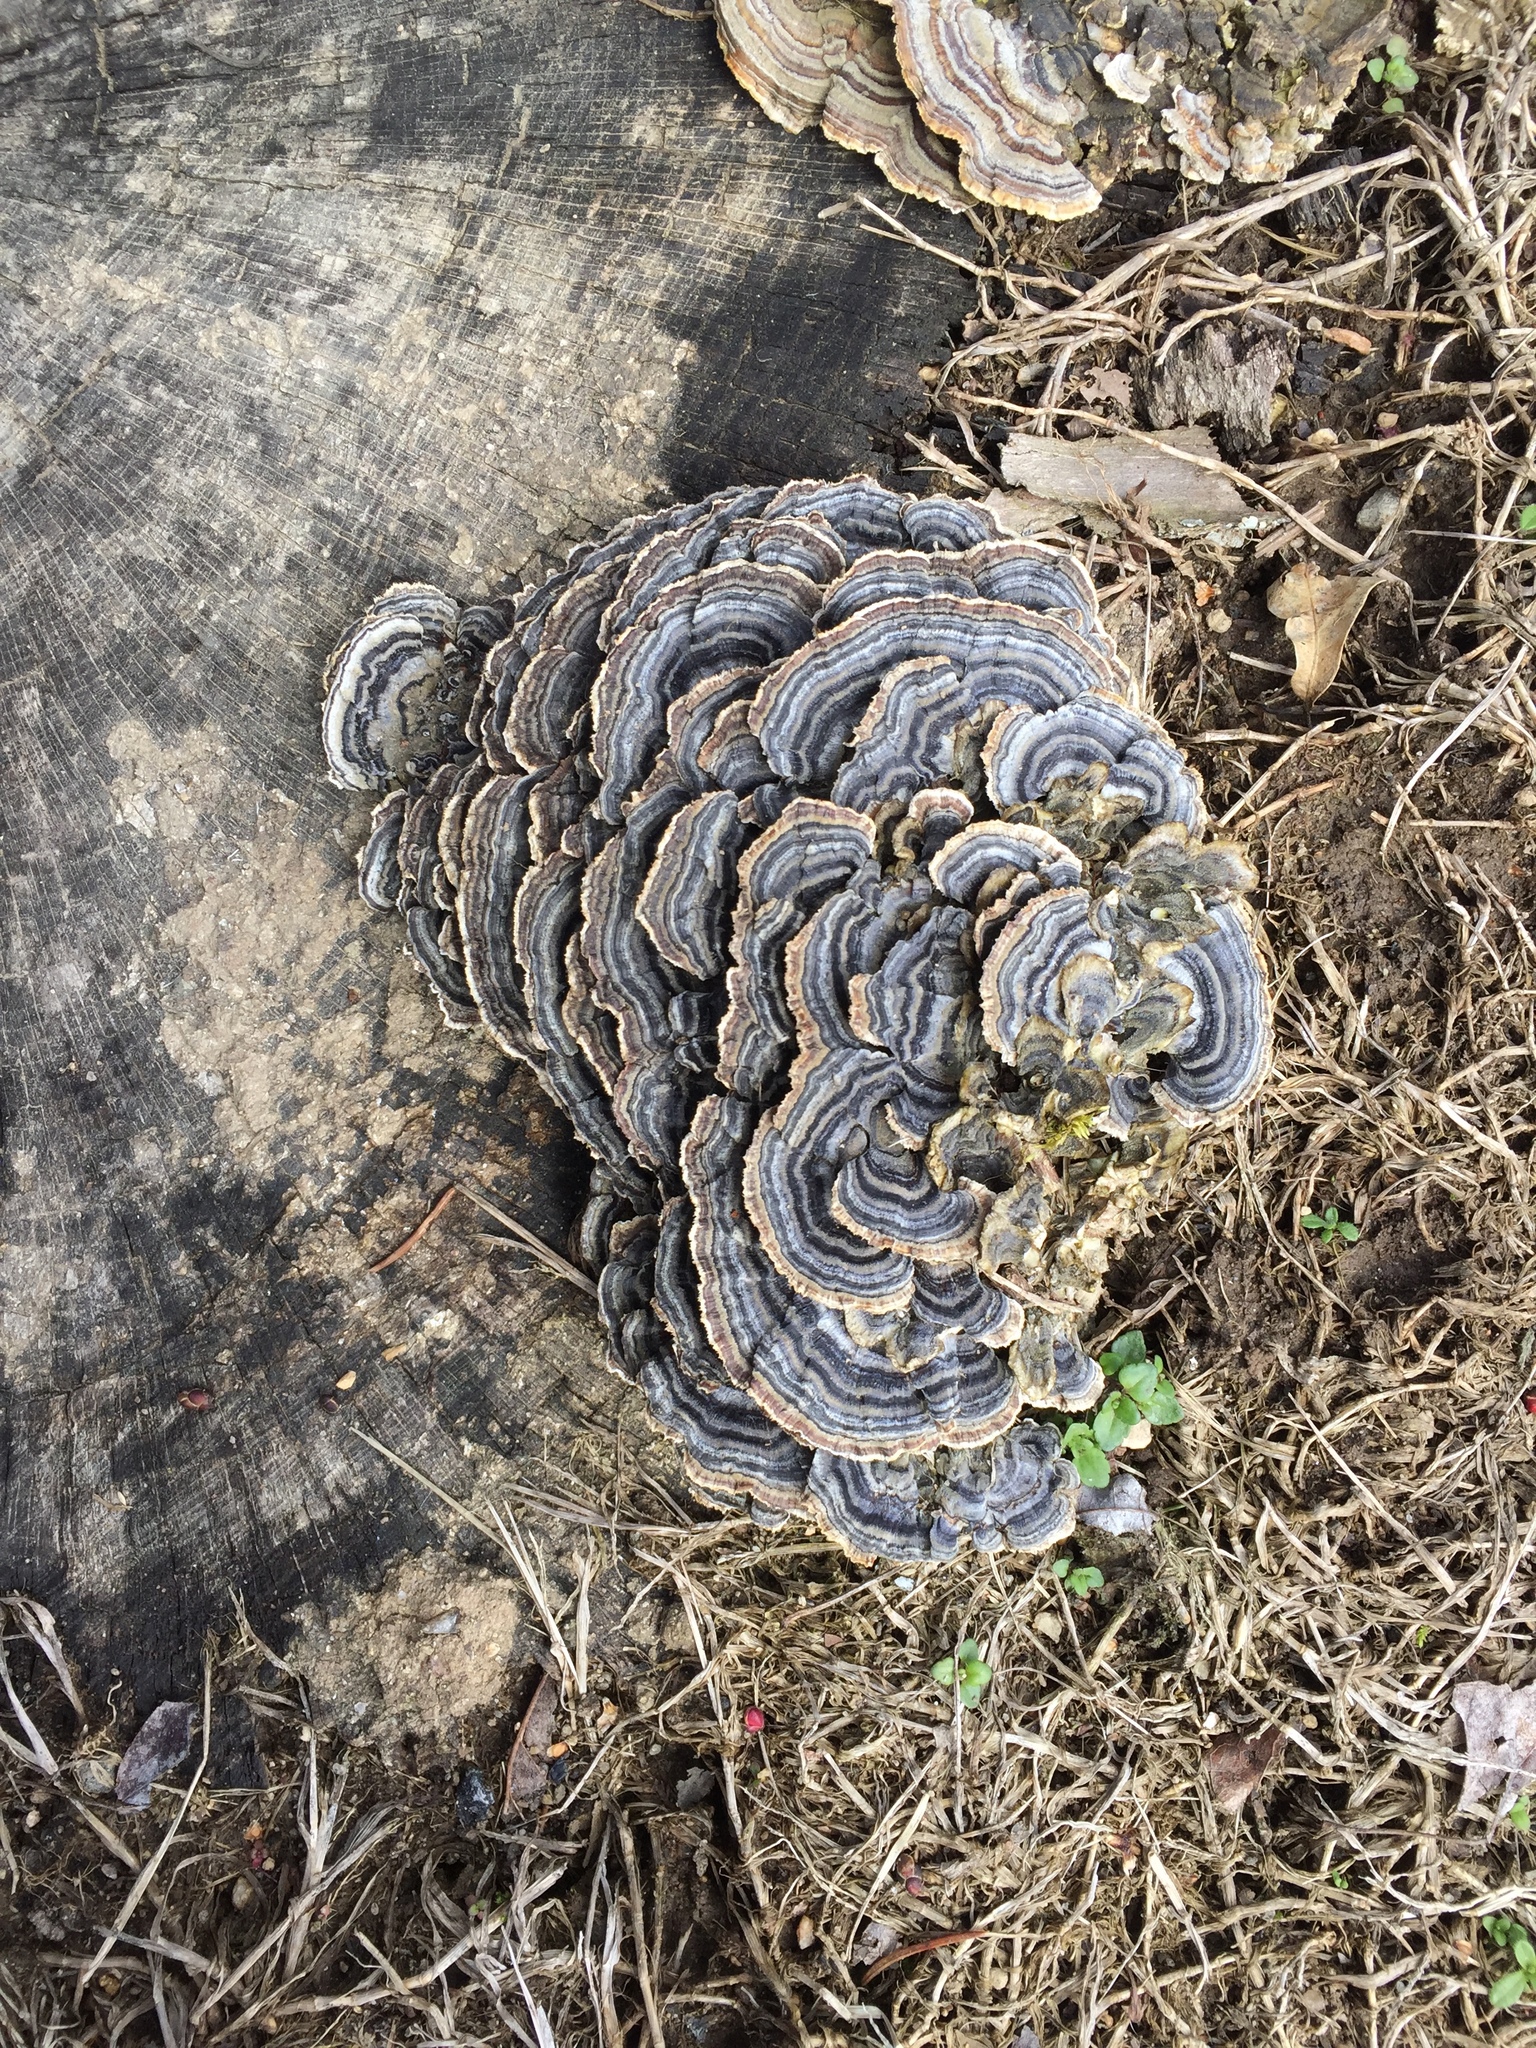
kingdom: Fungi
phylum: Basidiomycota
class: Agaricomycetes
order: Polyporales
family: Polyporaceae
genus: Trametes
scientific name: Trametes versicolor
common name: Turkeytail
